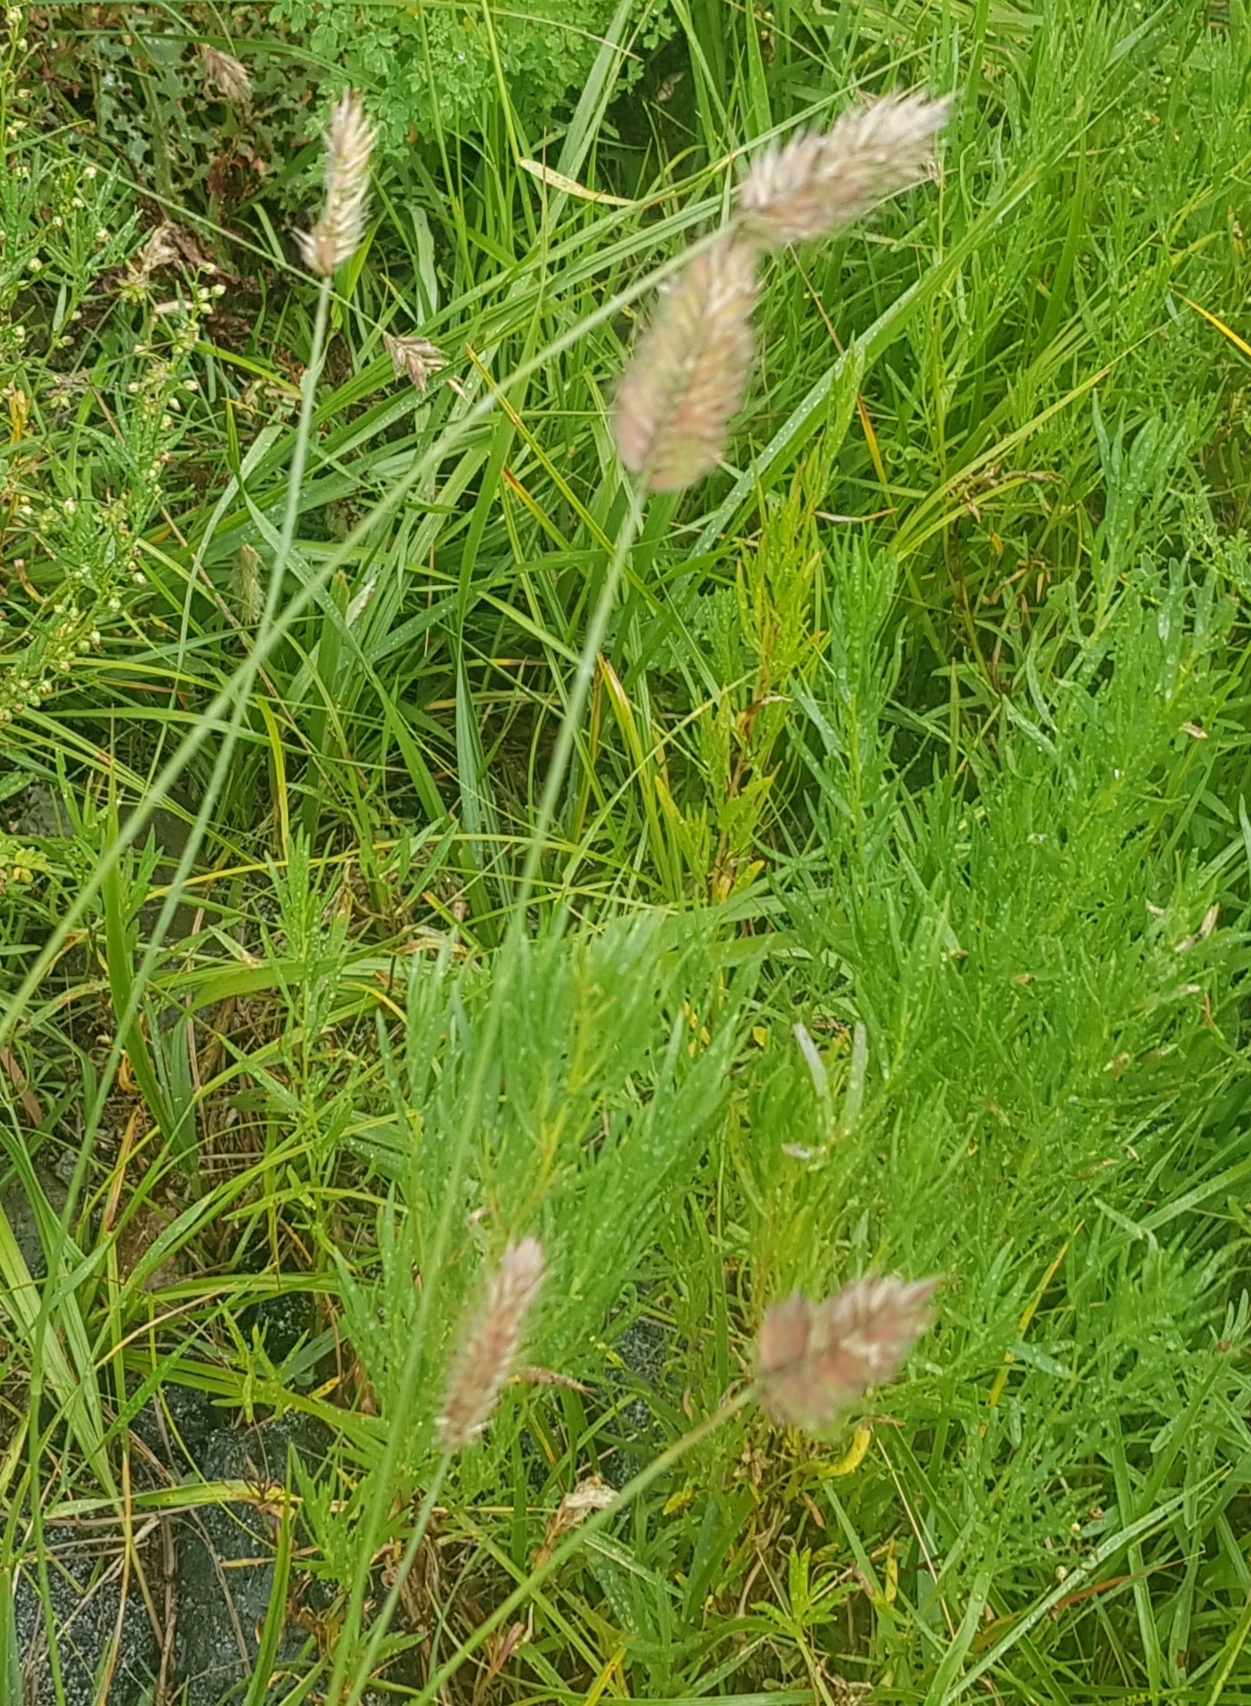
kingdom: Plantae
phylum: Tracheophyta
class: Liliopsida
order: Poales
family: Poaceae
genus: Agropyron
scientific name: Agropyron cristatum
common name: Crested wheatgrass
